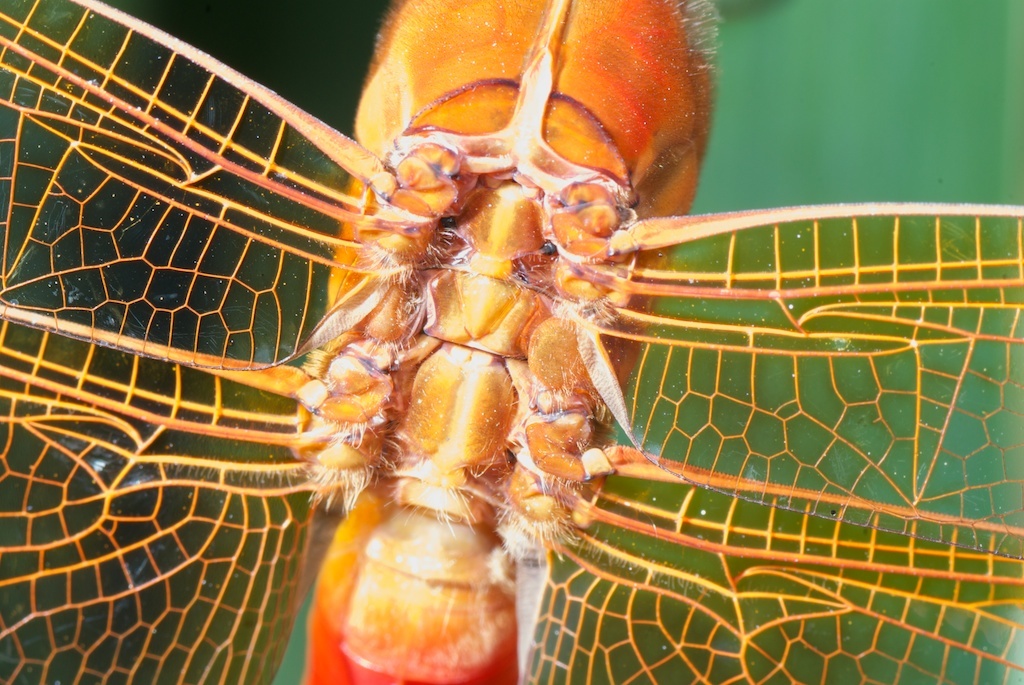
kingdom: Animalia
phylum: Arthropoda
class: Insecta
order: Odonata
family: Libellulidae
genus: Libellula
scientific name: Libellula croceipennis
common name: Neon skimmer
